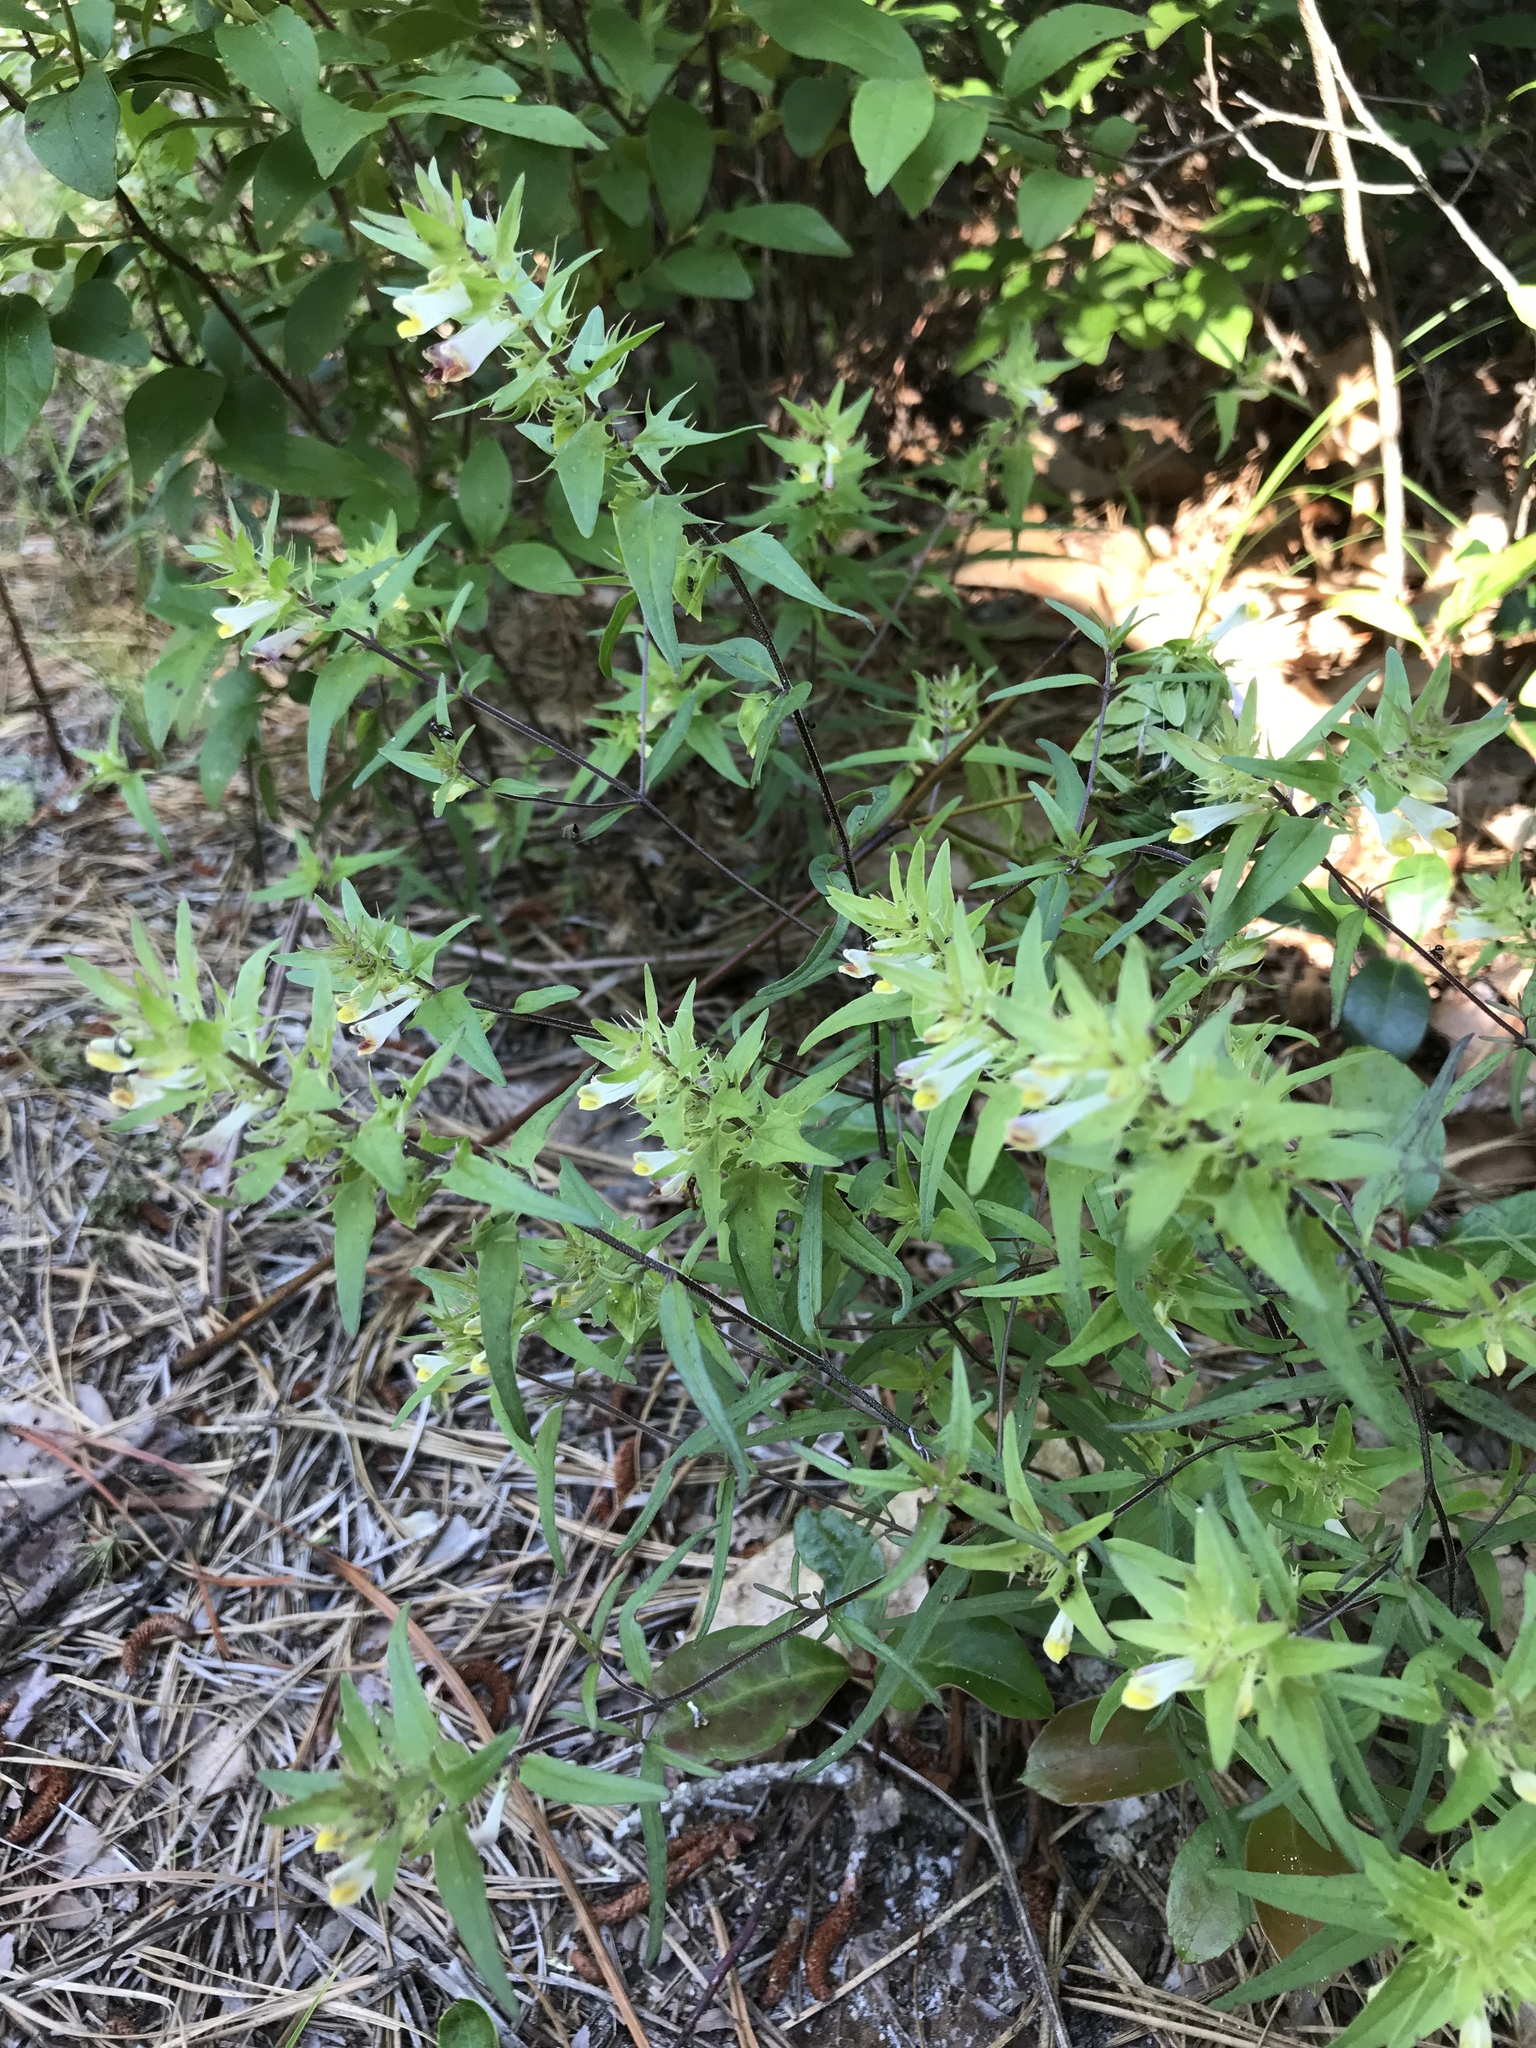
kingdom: Plantae
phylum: Tracheophyta
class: Magnoliopsida
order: Lamiales
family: Orobanchaceae
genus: Melampyrum
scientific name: Melampyrum lineare
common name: American cow-wheat
